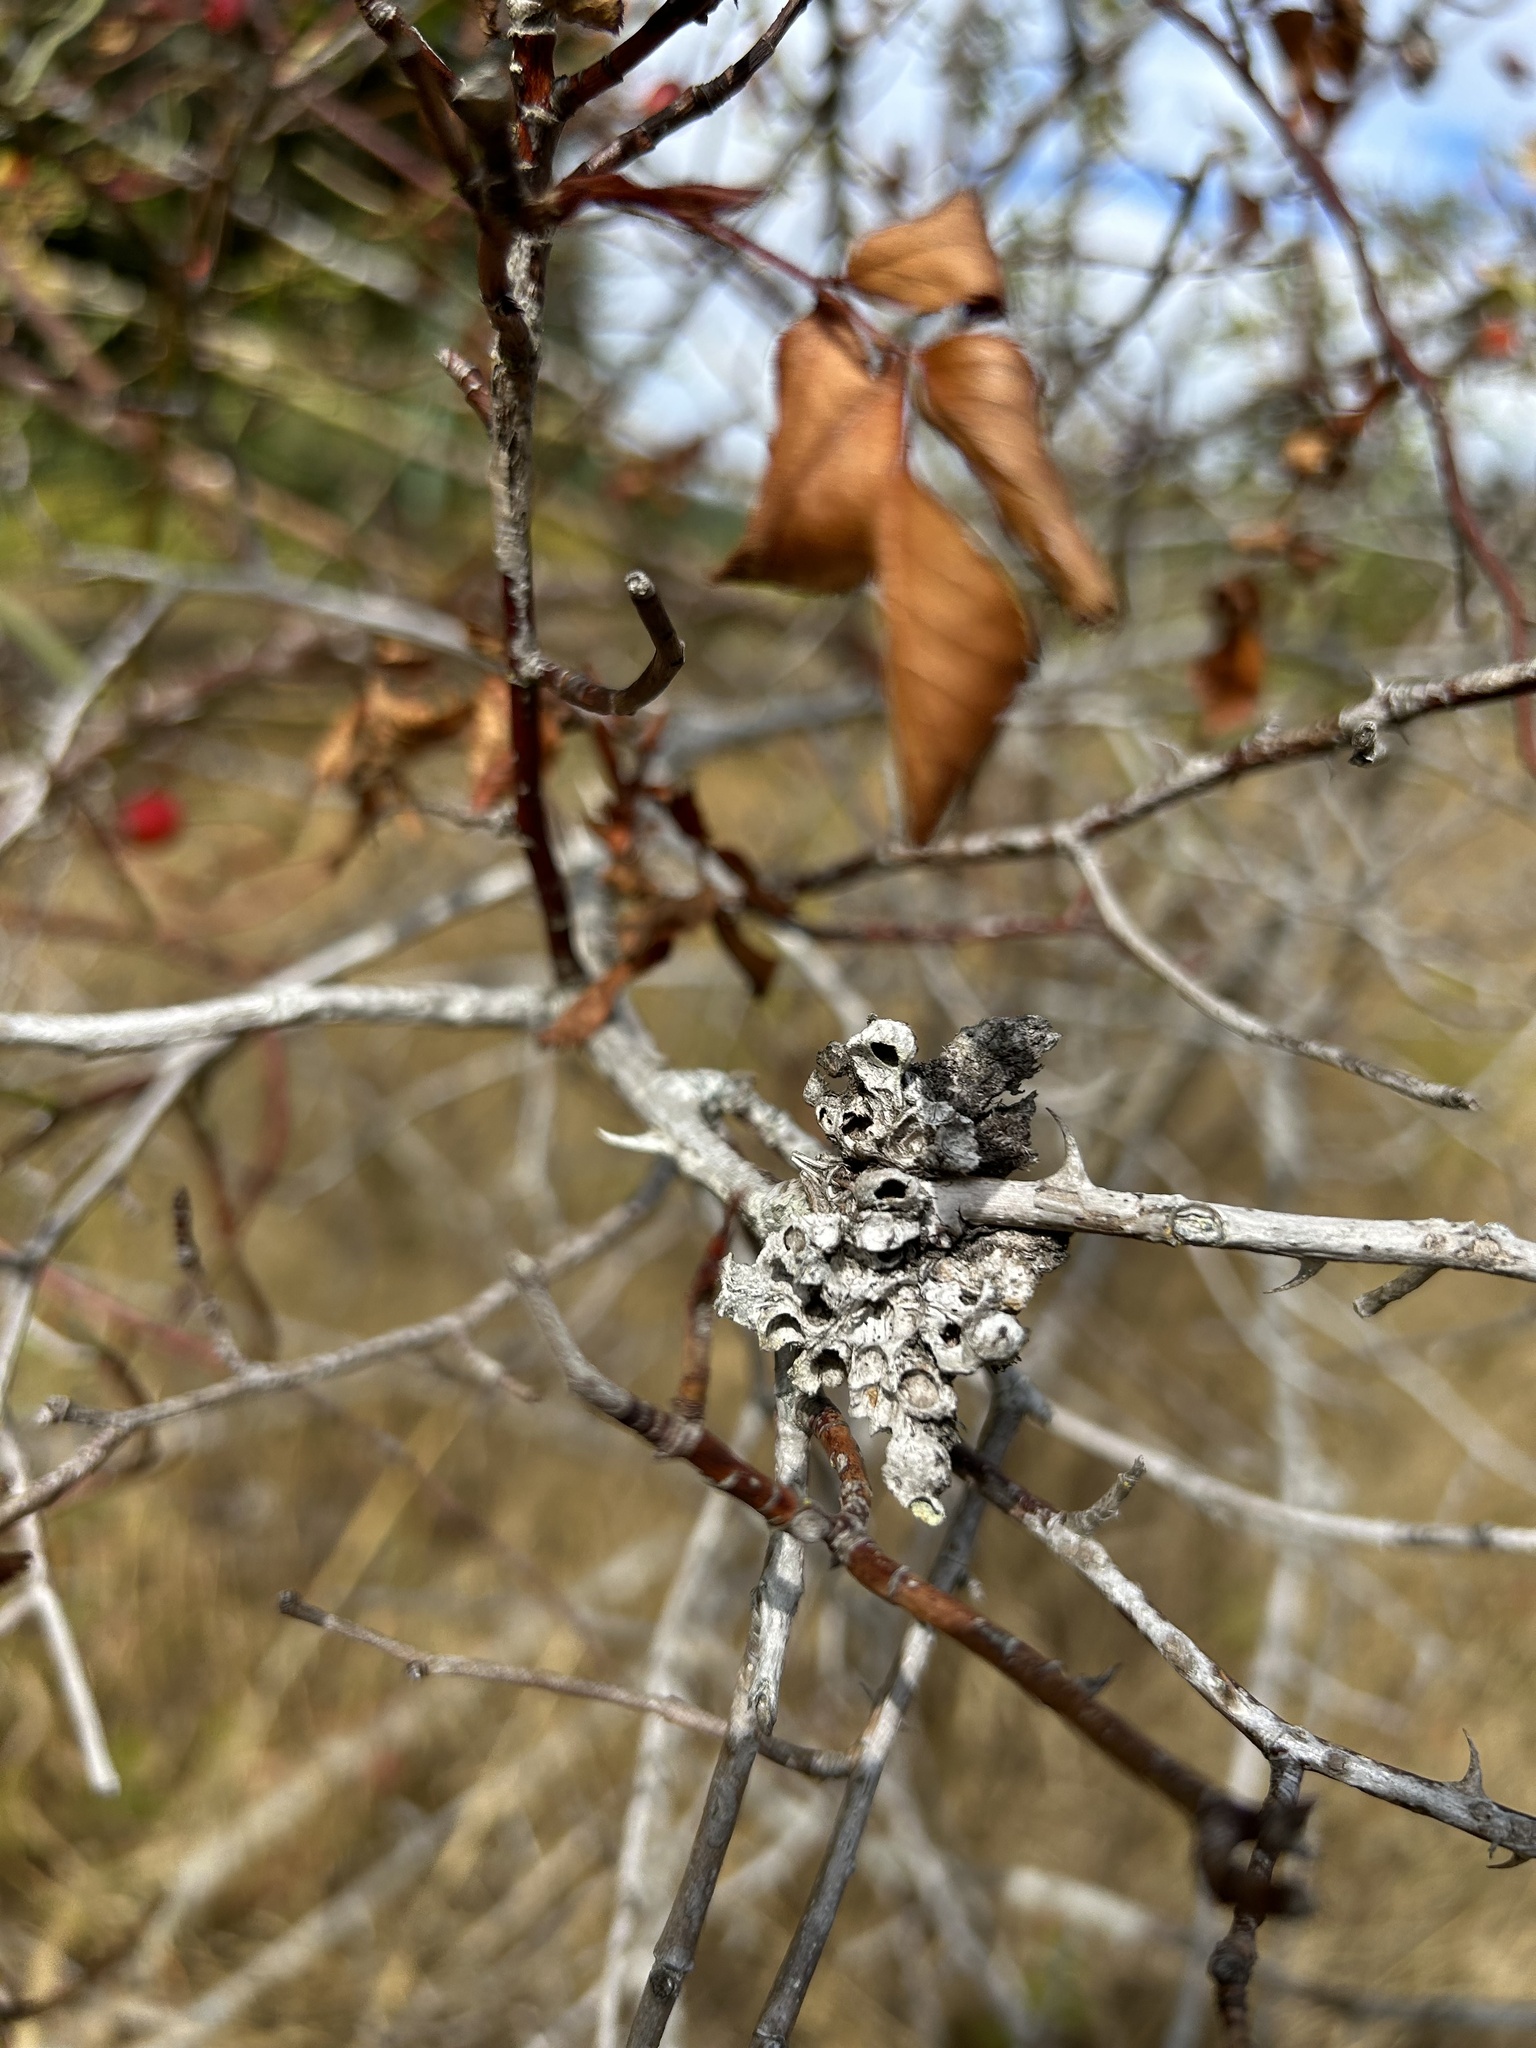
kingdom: Animalia
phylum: Arthropoda
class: Insecta
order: Hymenoptera
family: Cynipidae
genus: Diplolepis
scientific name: Diplolepis rosae
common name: Bedeguar gall
